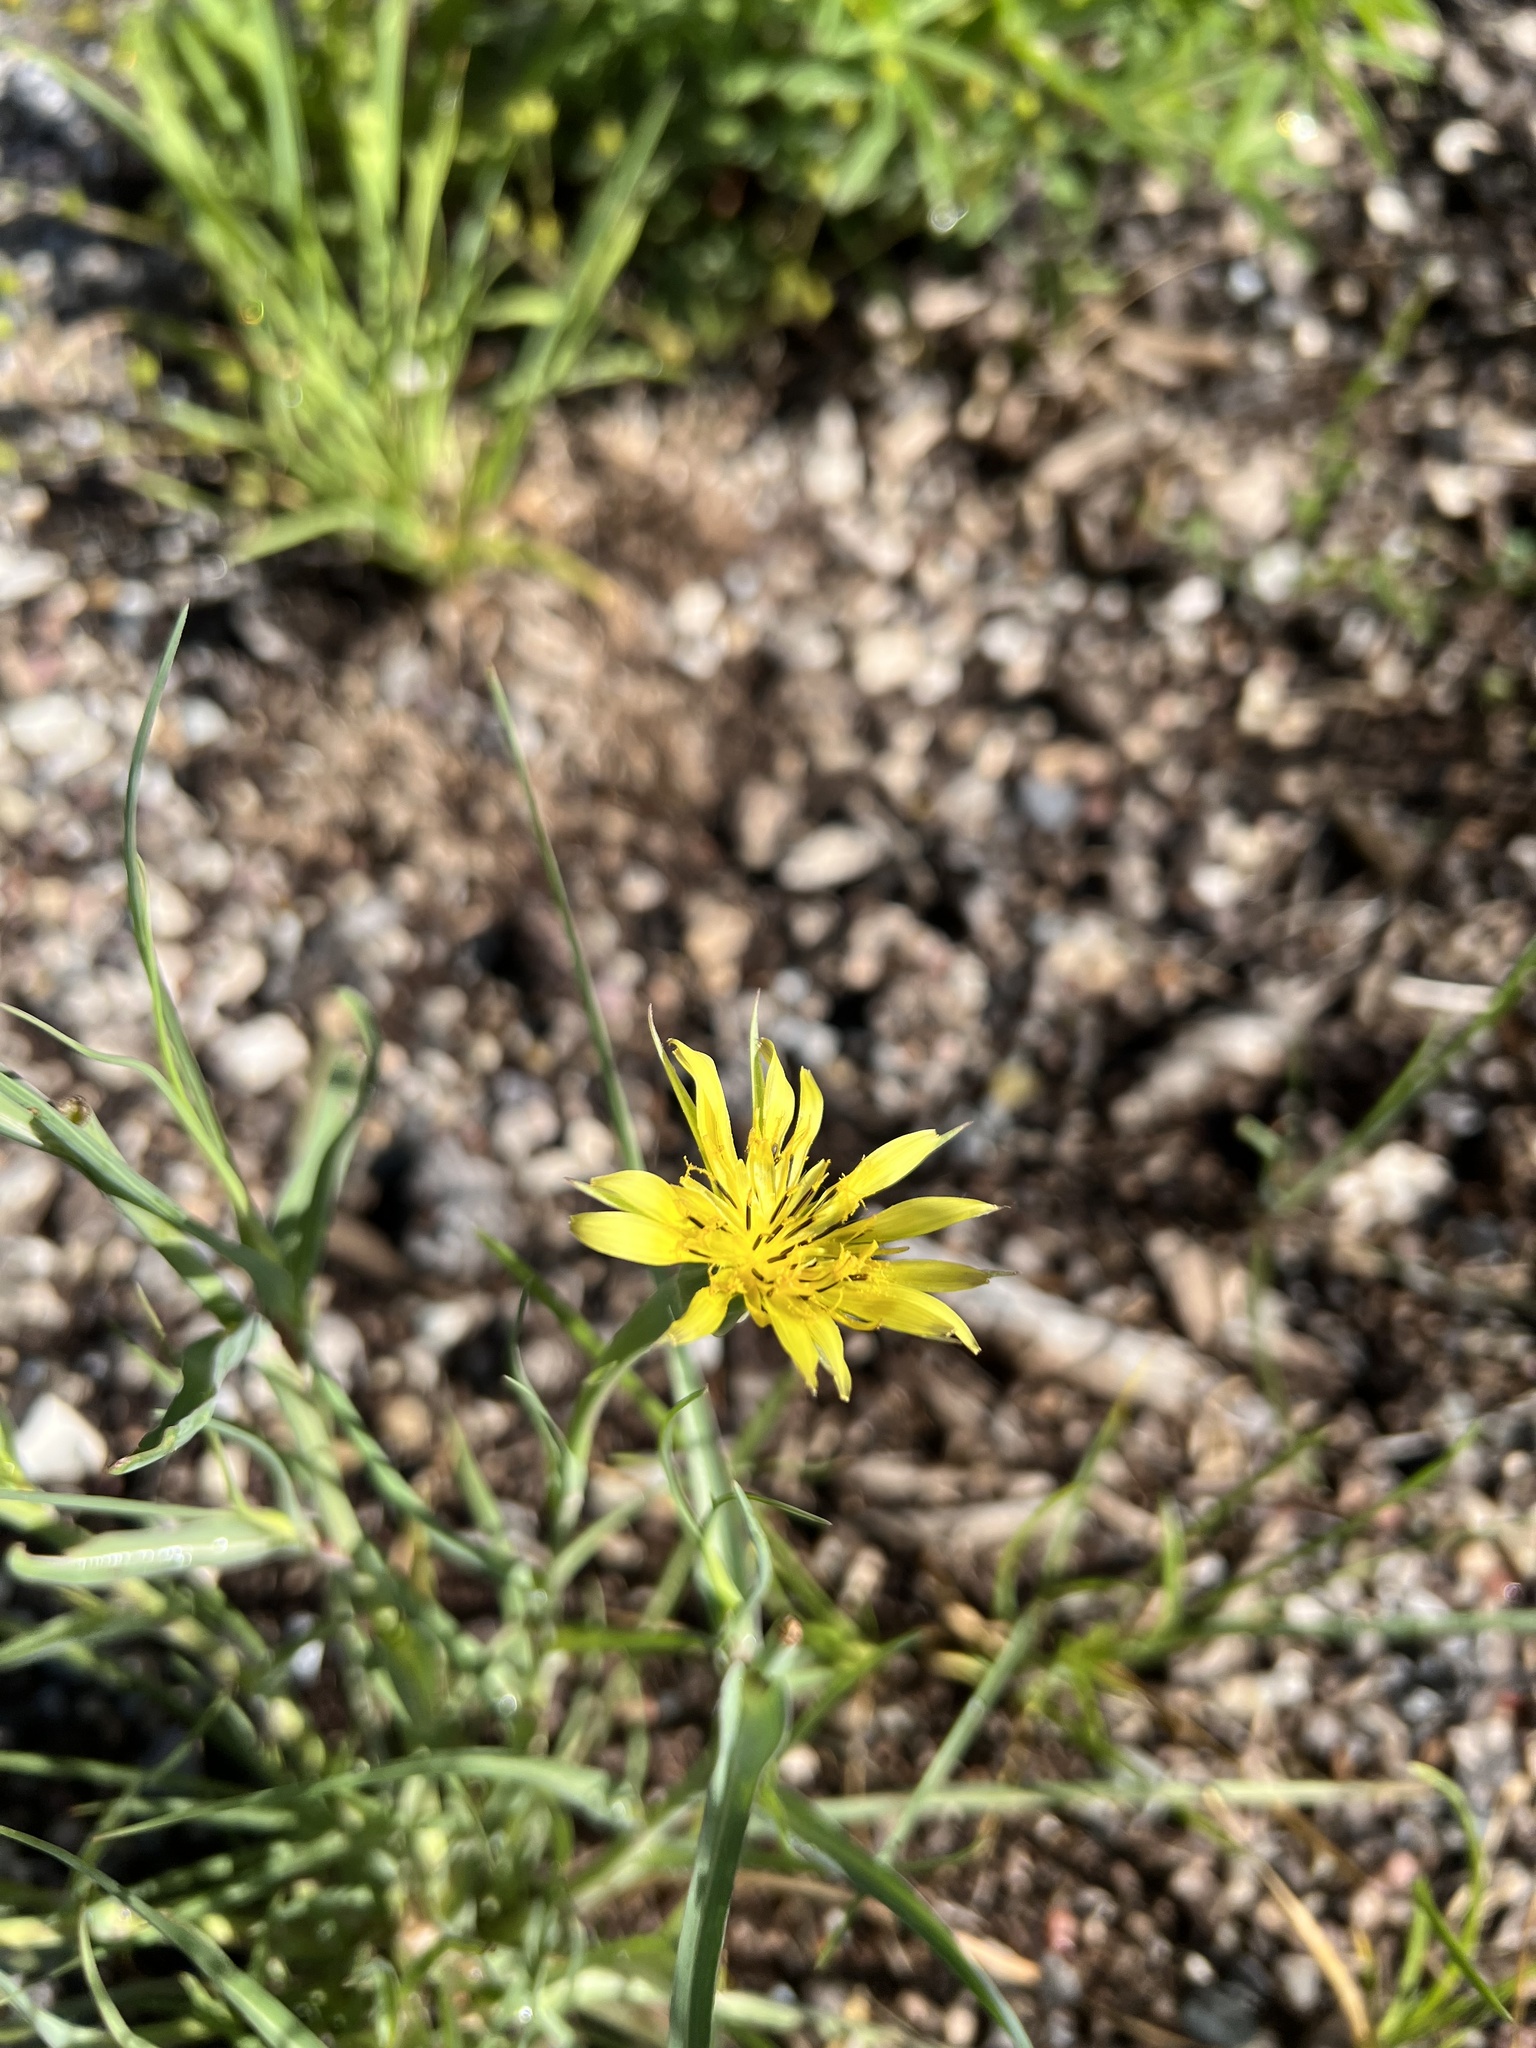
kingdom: Plantae
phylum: Tracheophyta
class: Magnoliopsida
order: Asterales
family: Asteraceae
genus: Tragopogon
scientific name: Tragopogon dubius
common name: Yellow salsify
